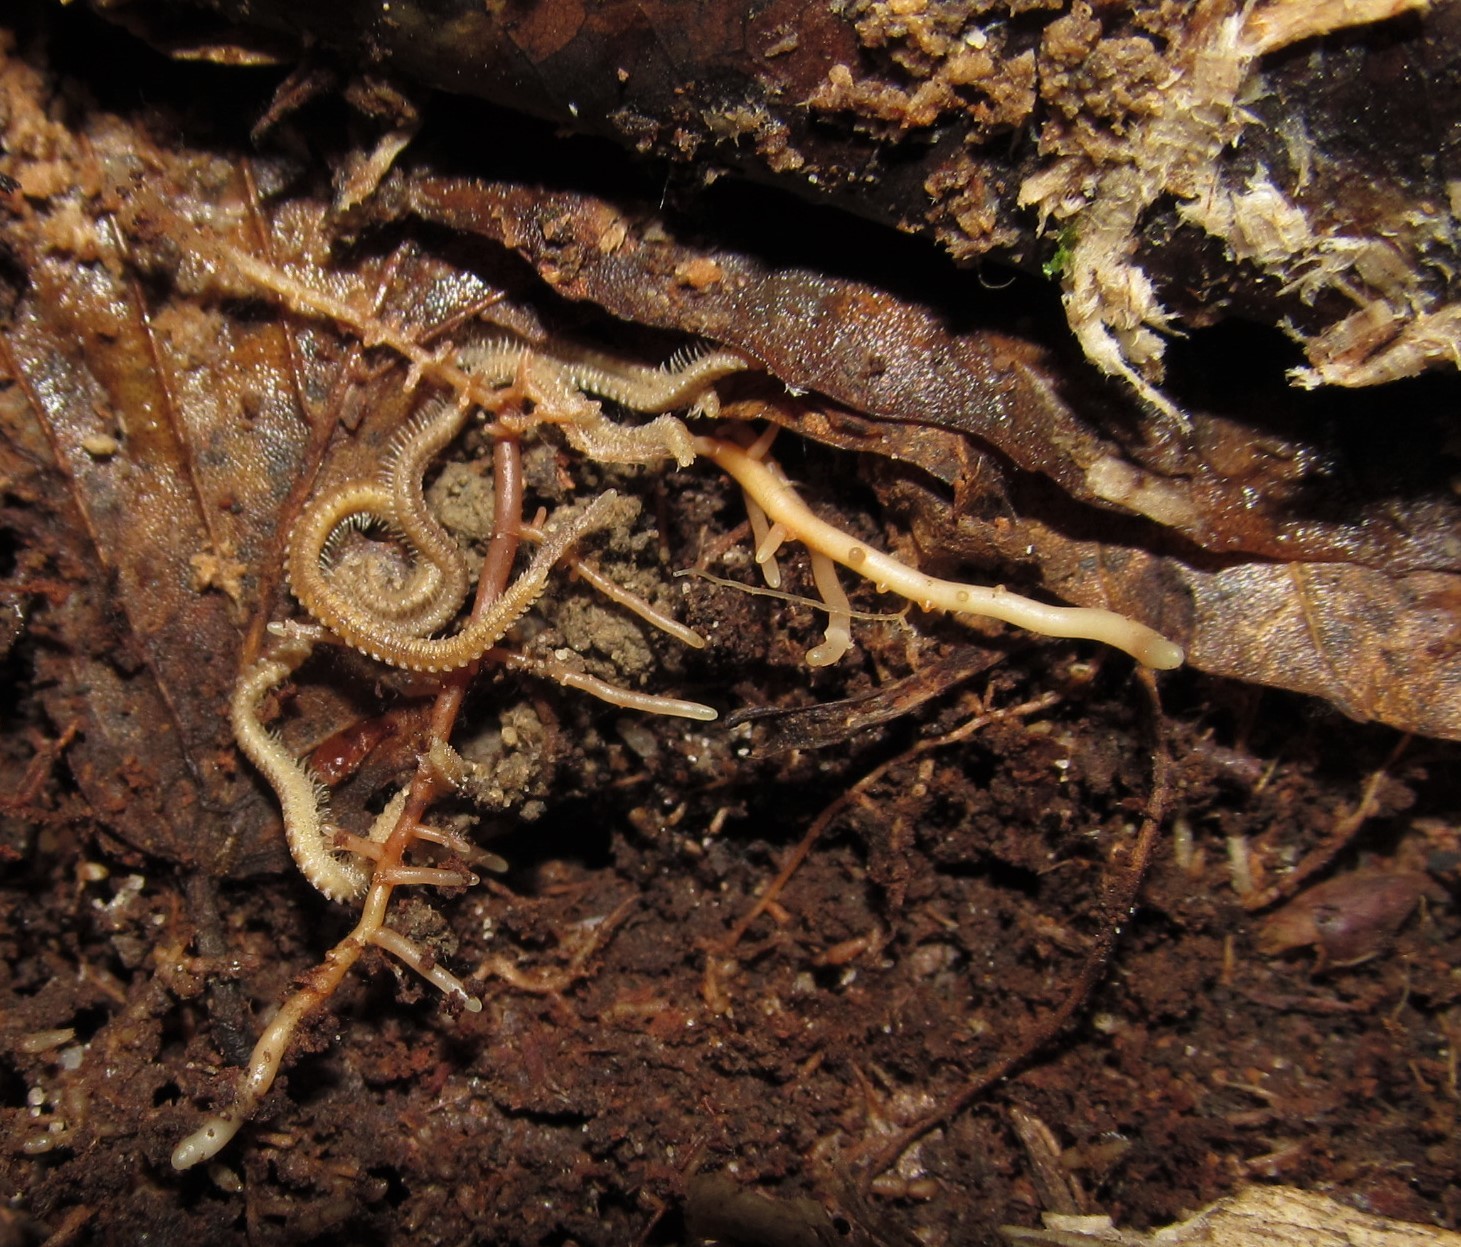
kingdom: Animalia
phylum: Arthropoda
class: Diplopoda
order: Platydesmida
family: Andrognathidae
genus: Andrognathus
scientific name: Andrognathus corticarius
